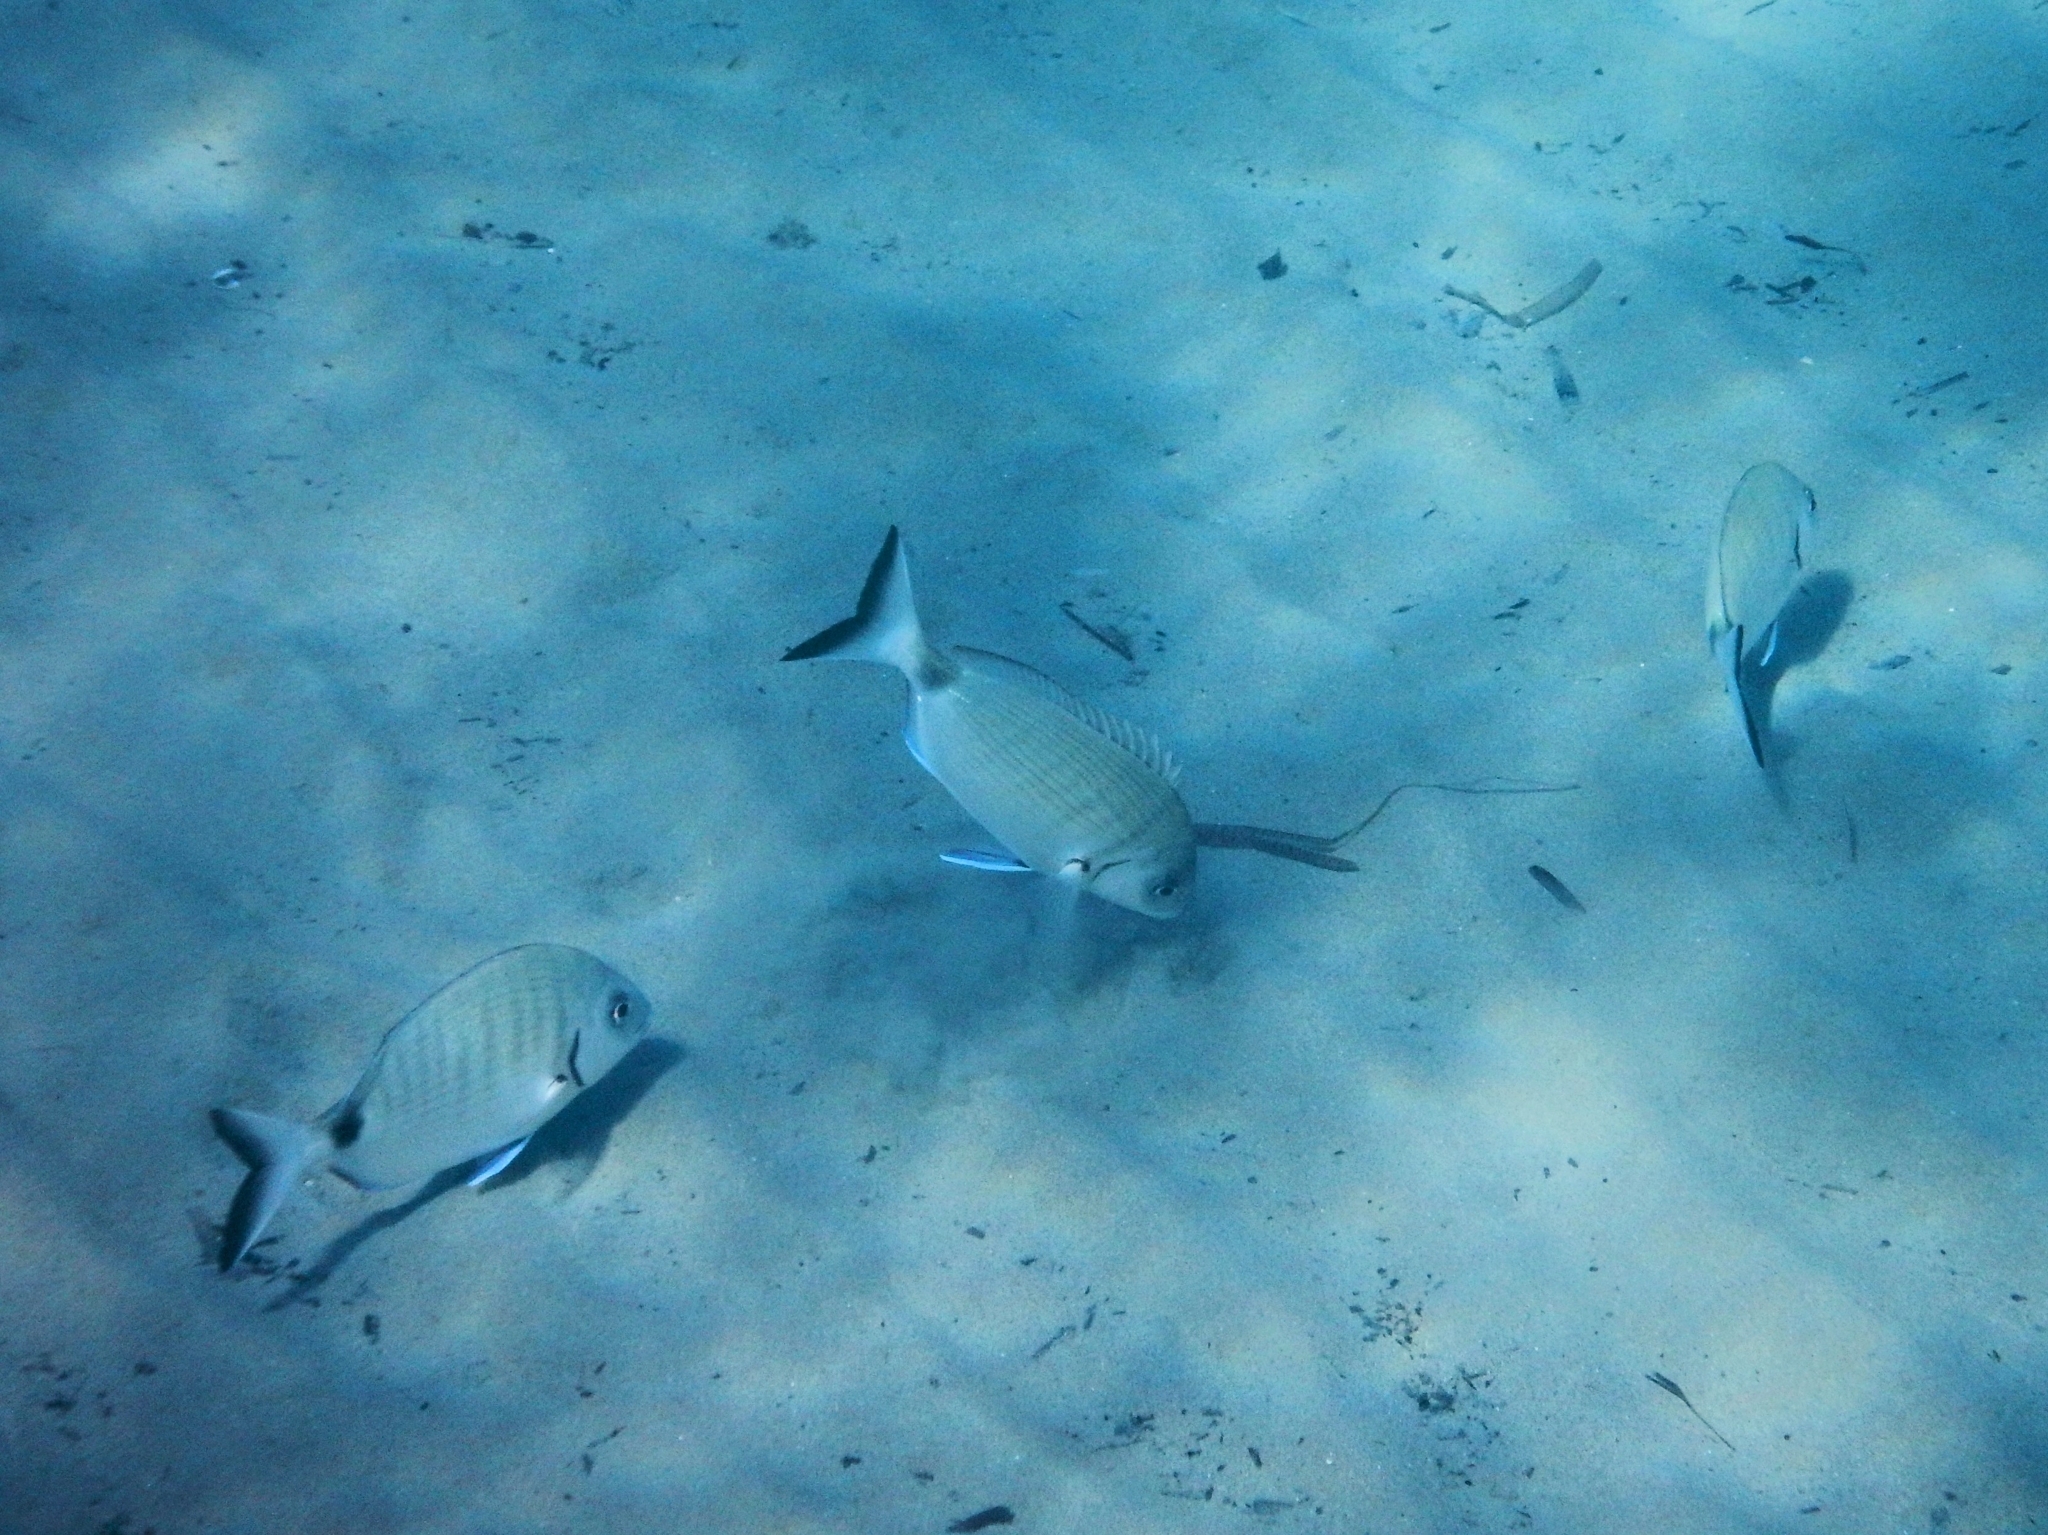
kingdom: Animalia
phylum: Chordata
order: Perciformes
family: Sparidae
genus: Diplodus
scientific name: Diplodus sargus
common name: White seabream
